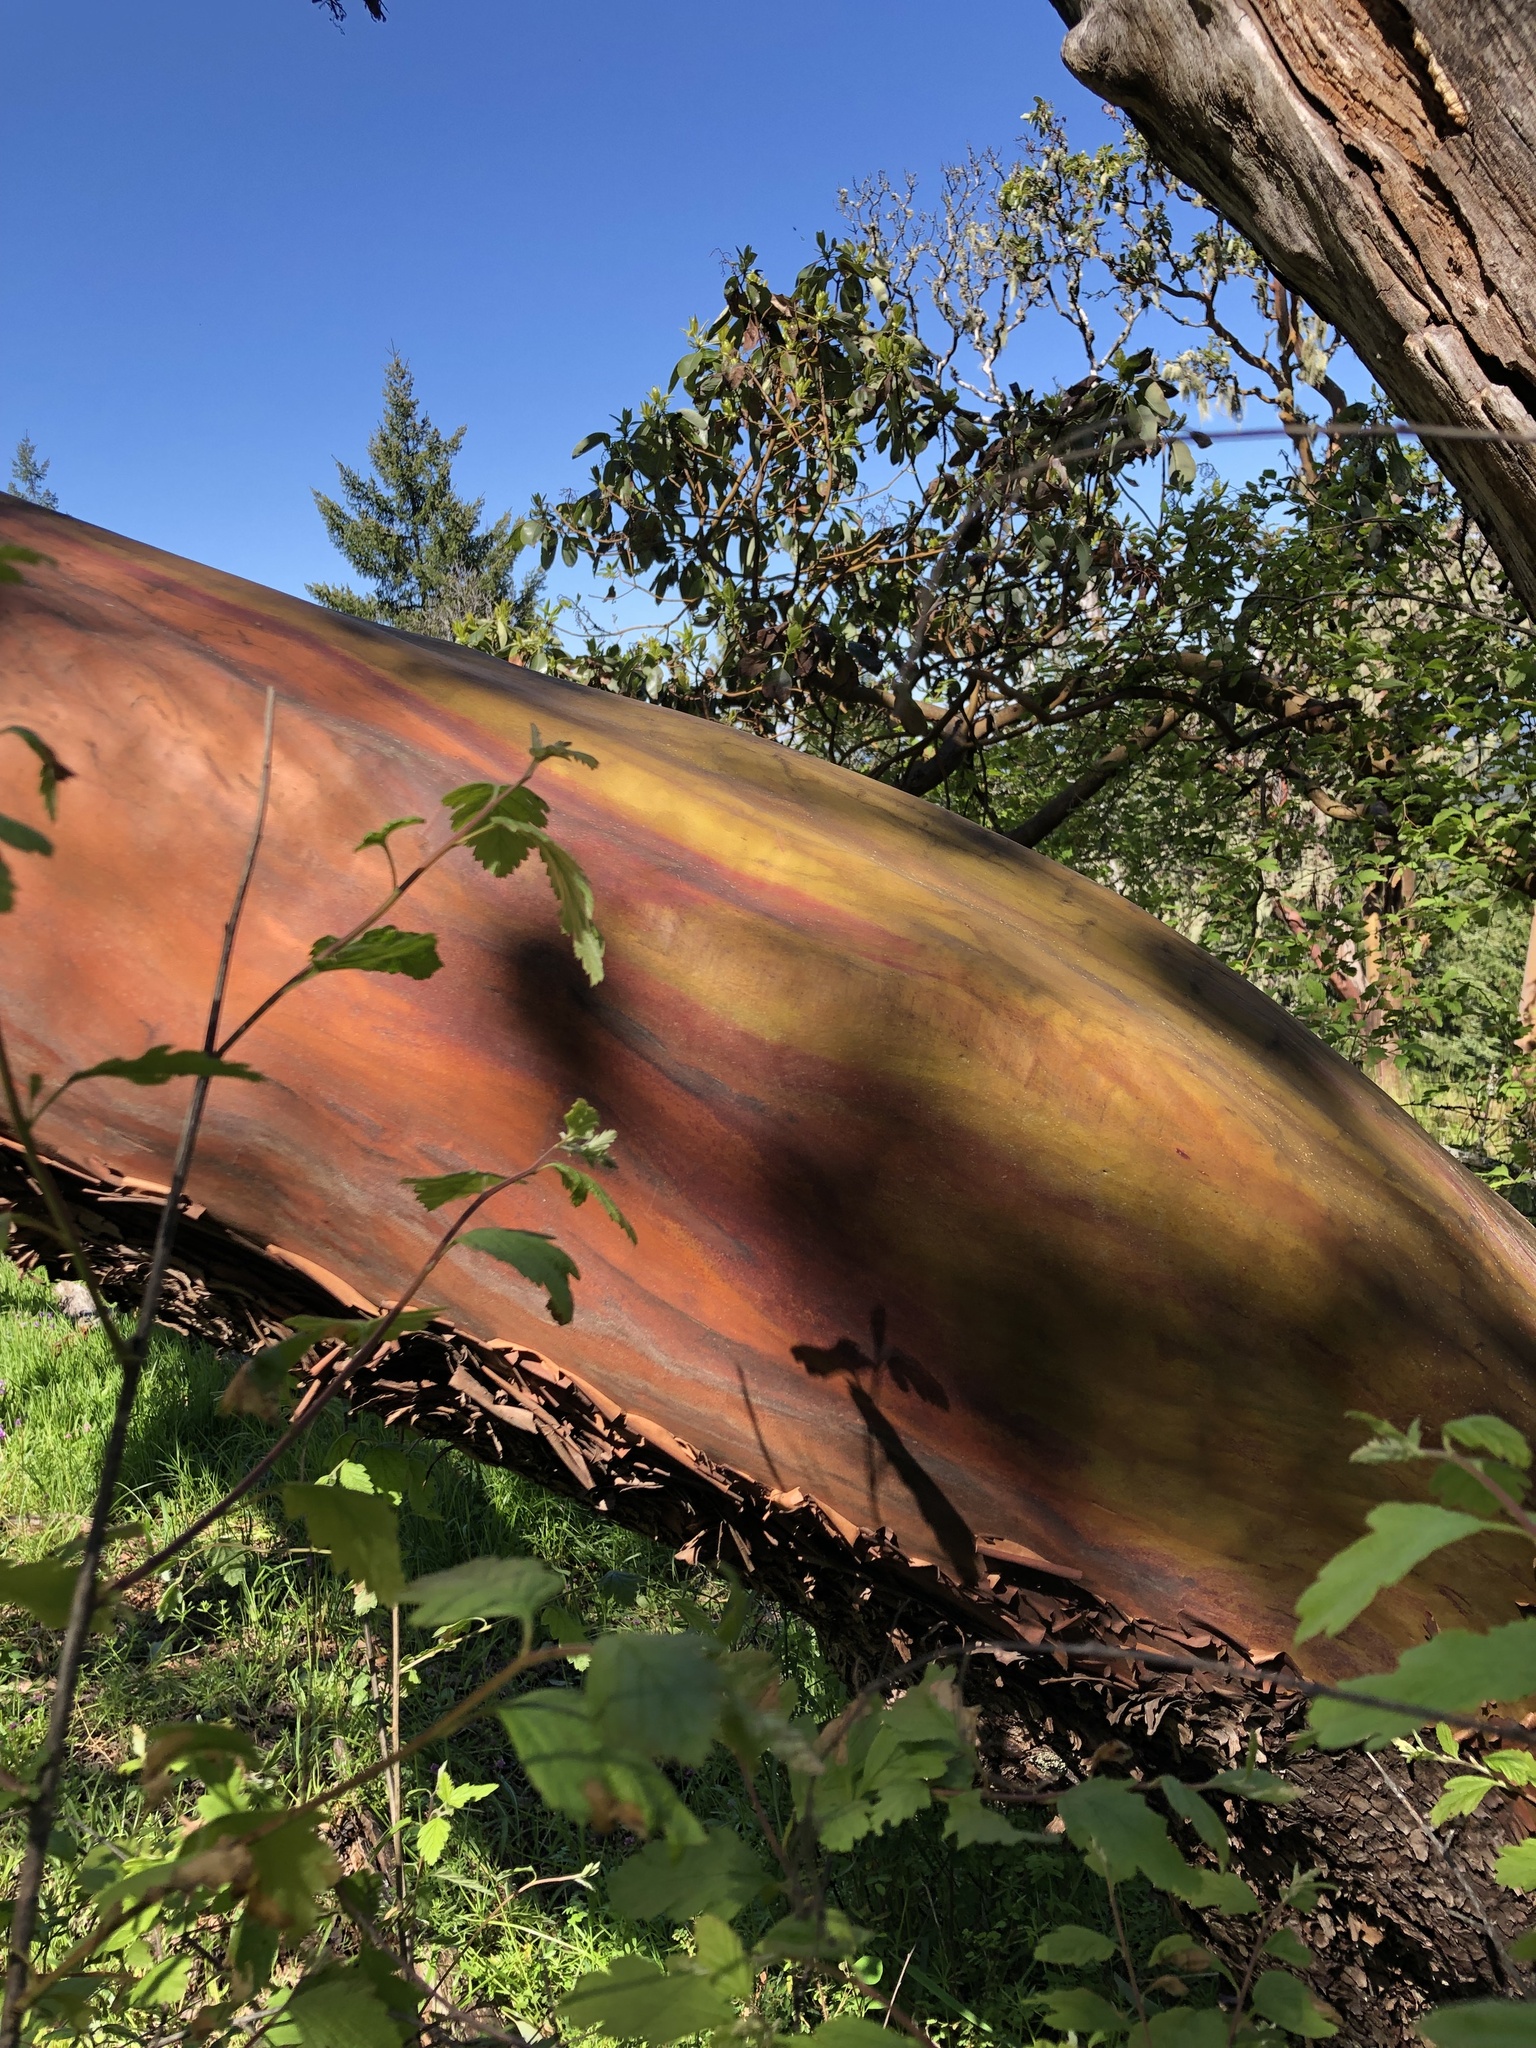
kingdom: Plantae
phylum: Tracheophyta
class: Magnoliopsida
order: Ericales
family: Ericaceae
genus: Arbutus
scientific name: Arbutus menziesii
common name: Pacific madrone
